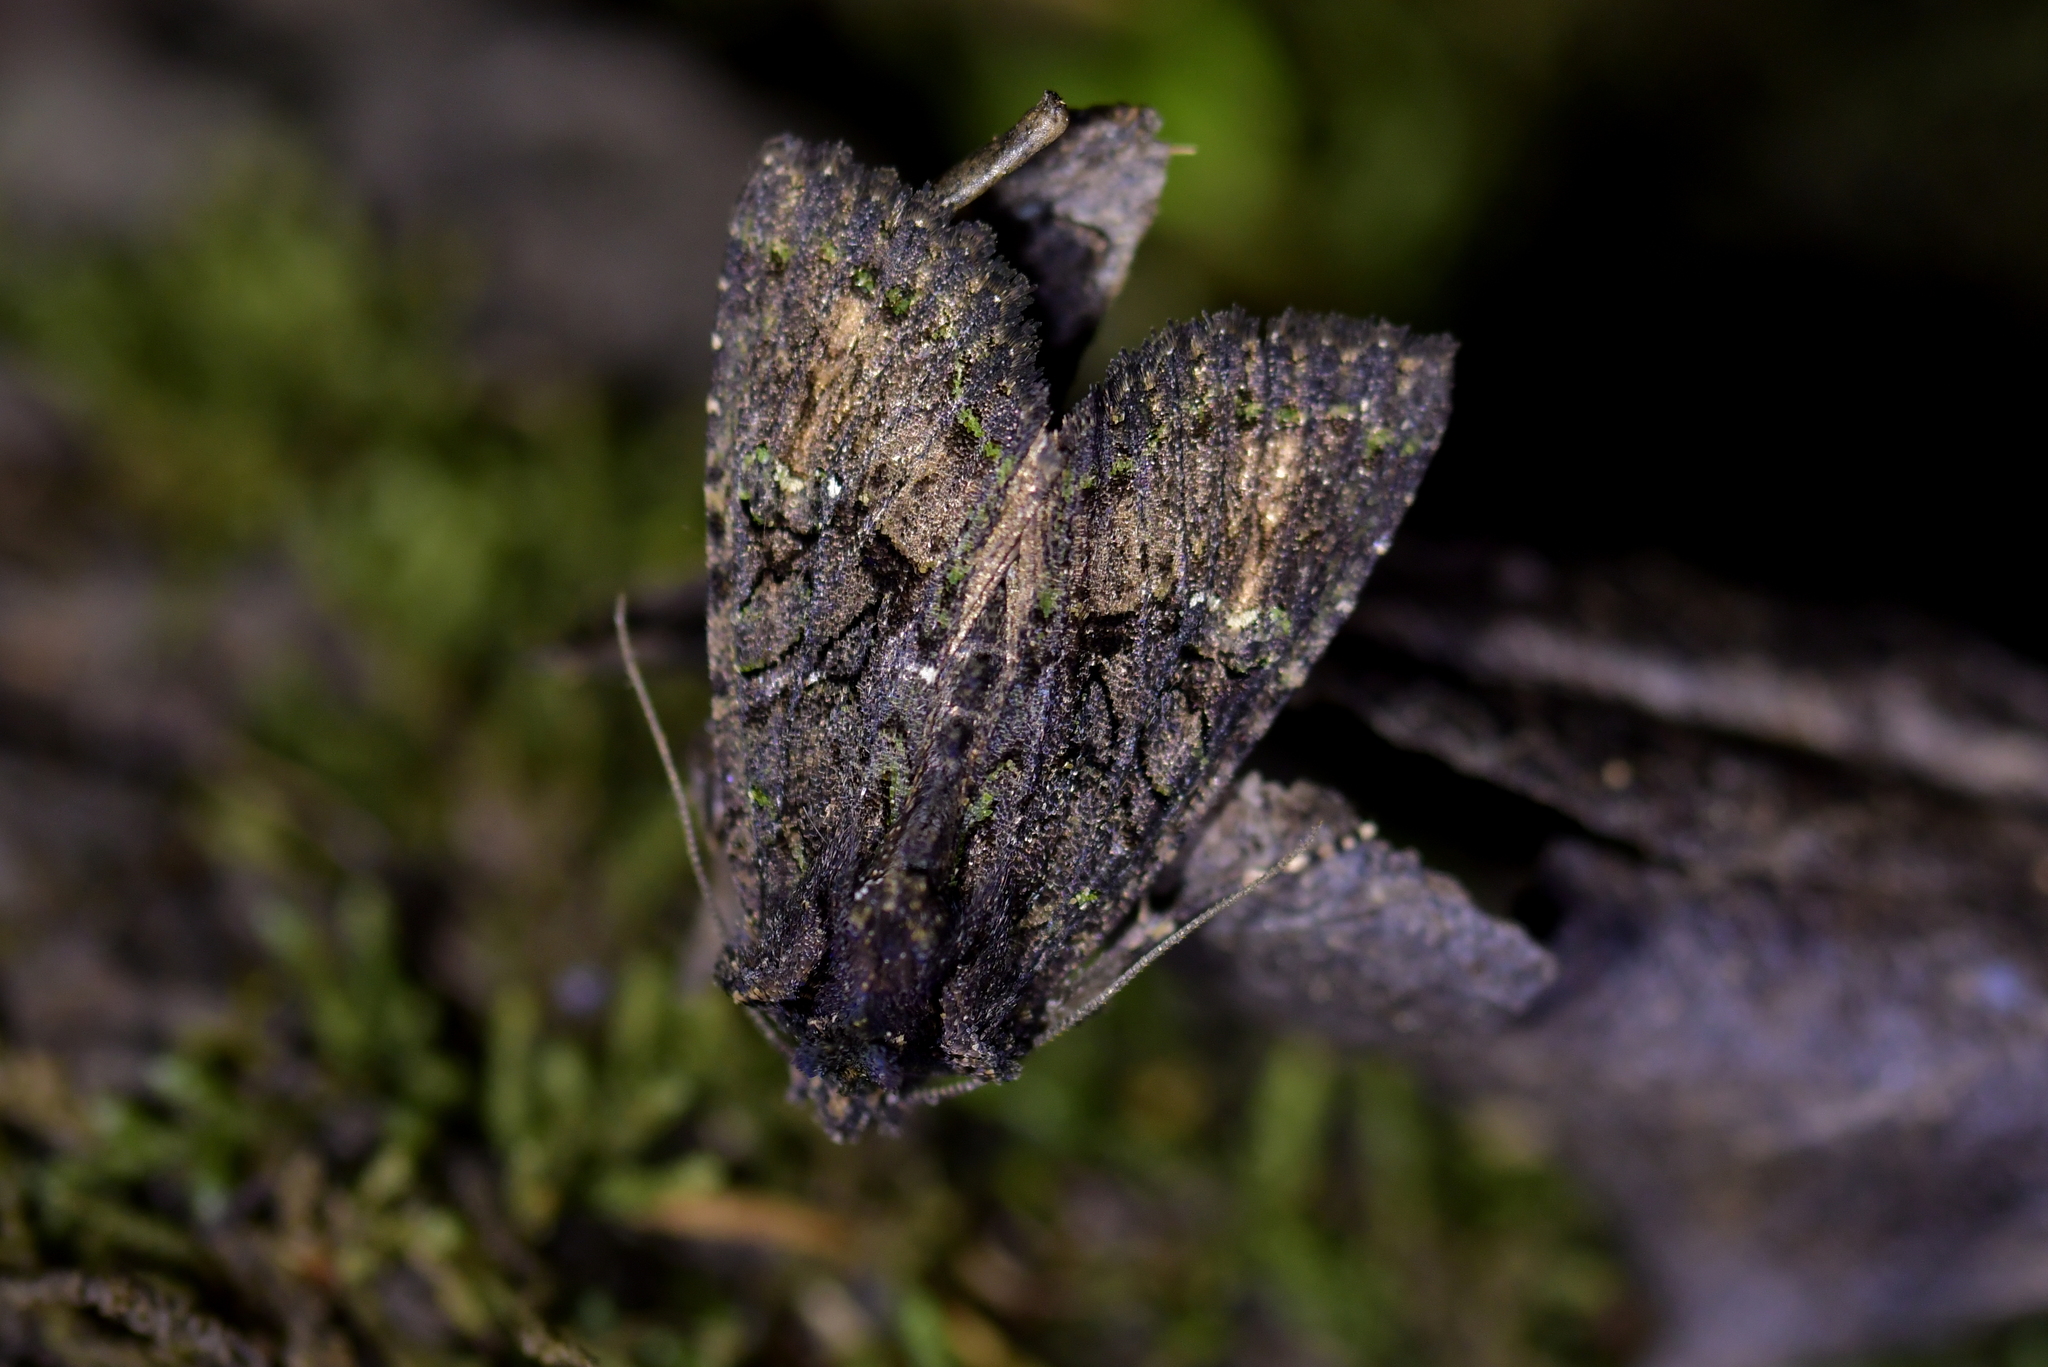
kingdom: Animalia
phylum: Arthropoda
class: Insecta
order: Lepidoptera
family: Noctuidae
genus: Meterana
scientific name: Meterana ochthistis
